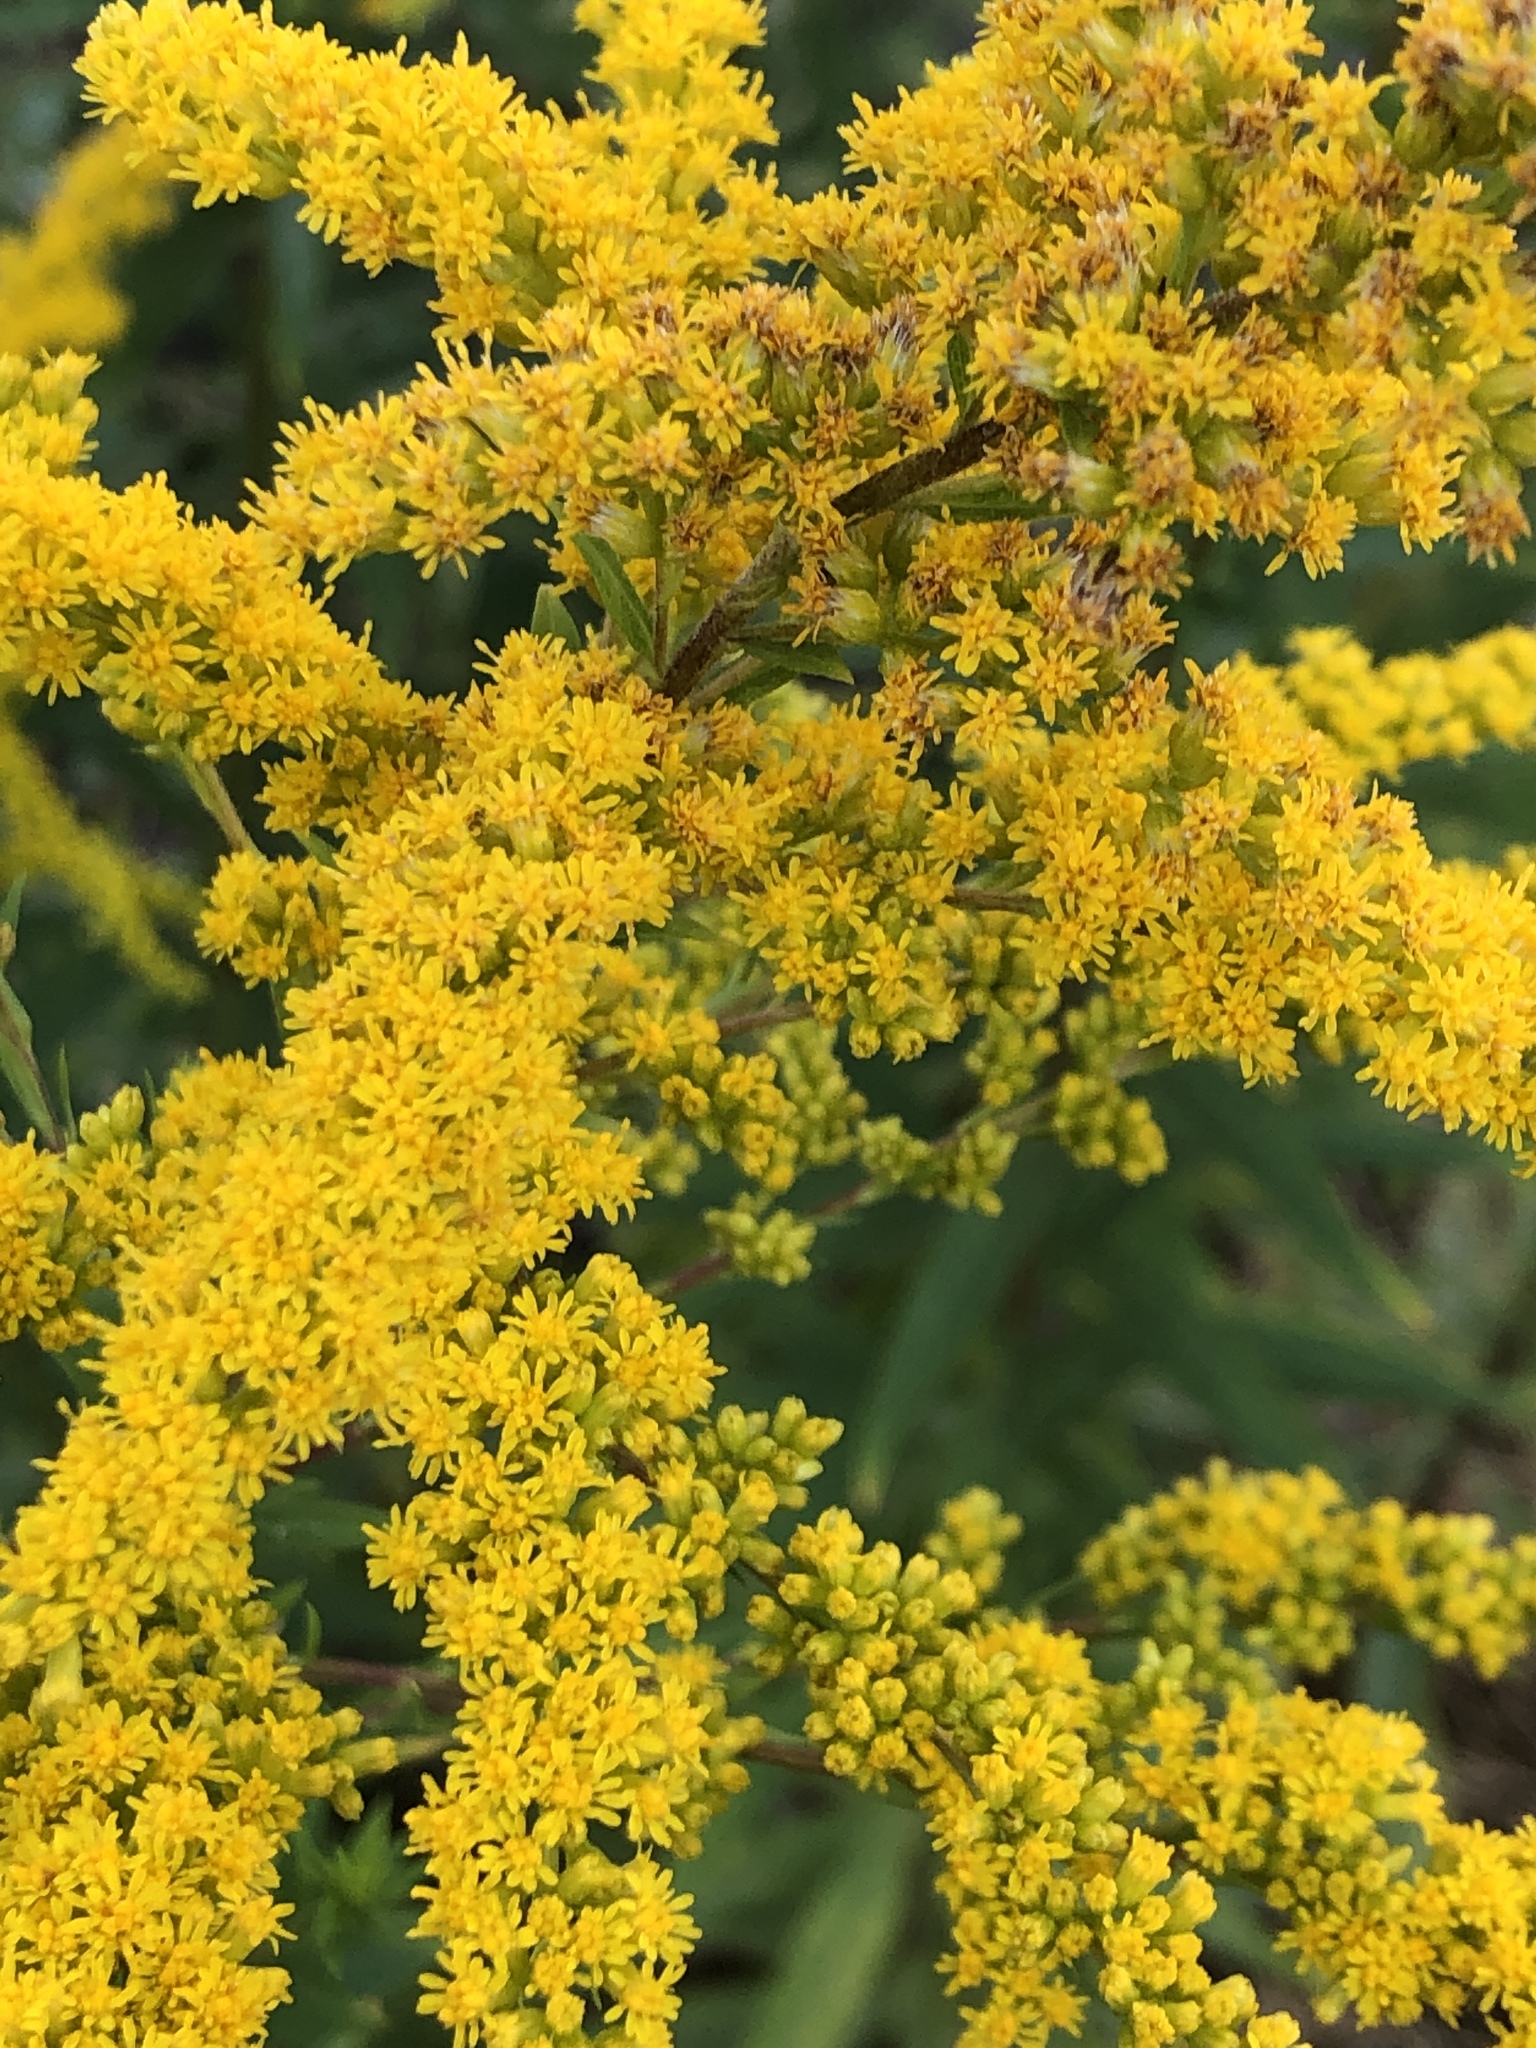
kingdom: Plantae
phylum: Tracheophyta
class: Magnoliopsida
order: Asterales
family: Asteraceae
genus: Solidago
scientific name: Solidago canadensis
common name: Canada goldenrod
